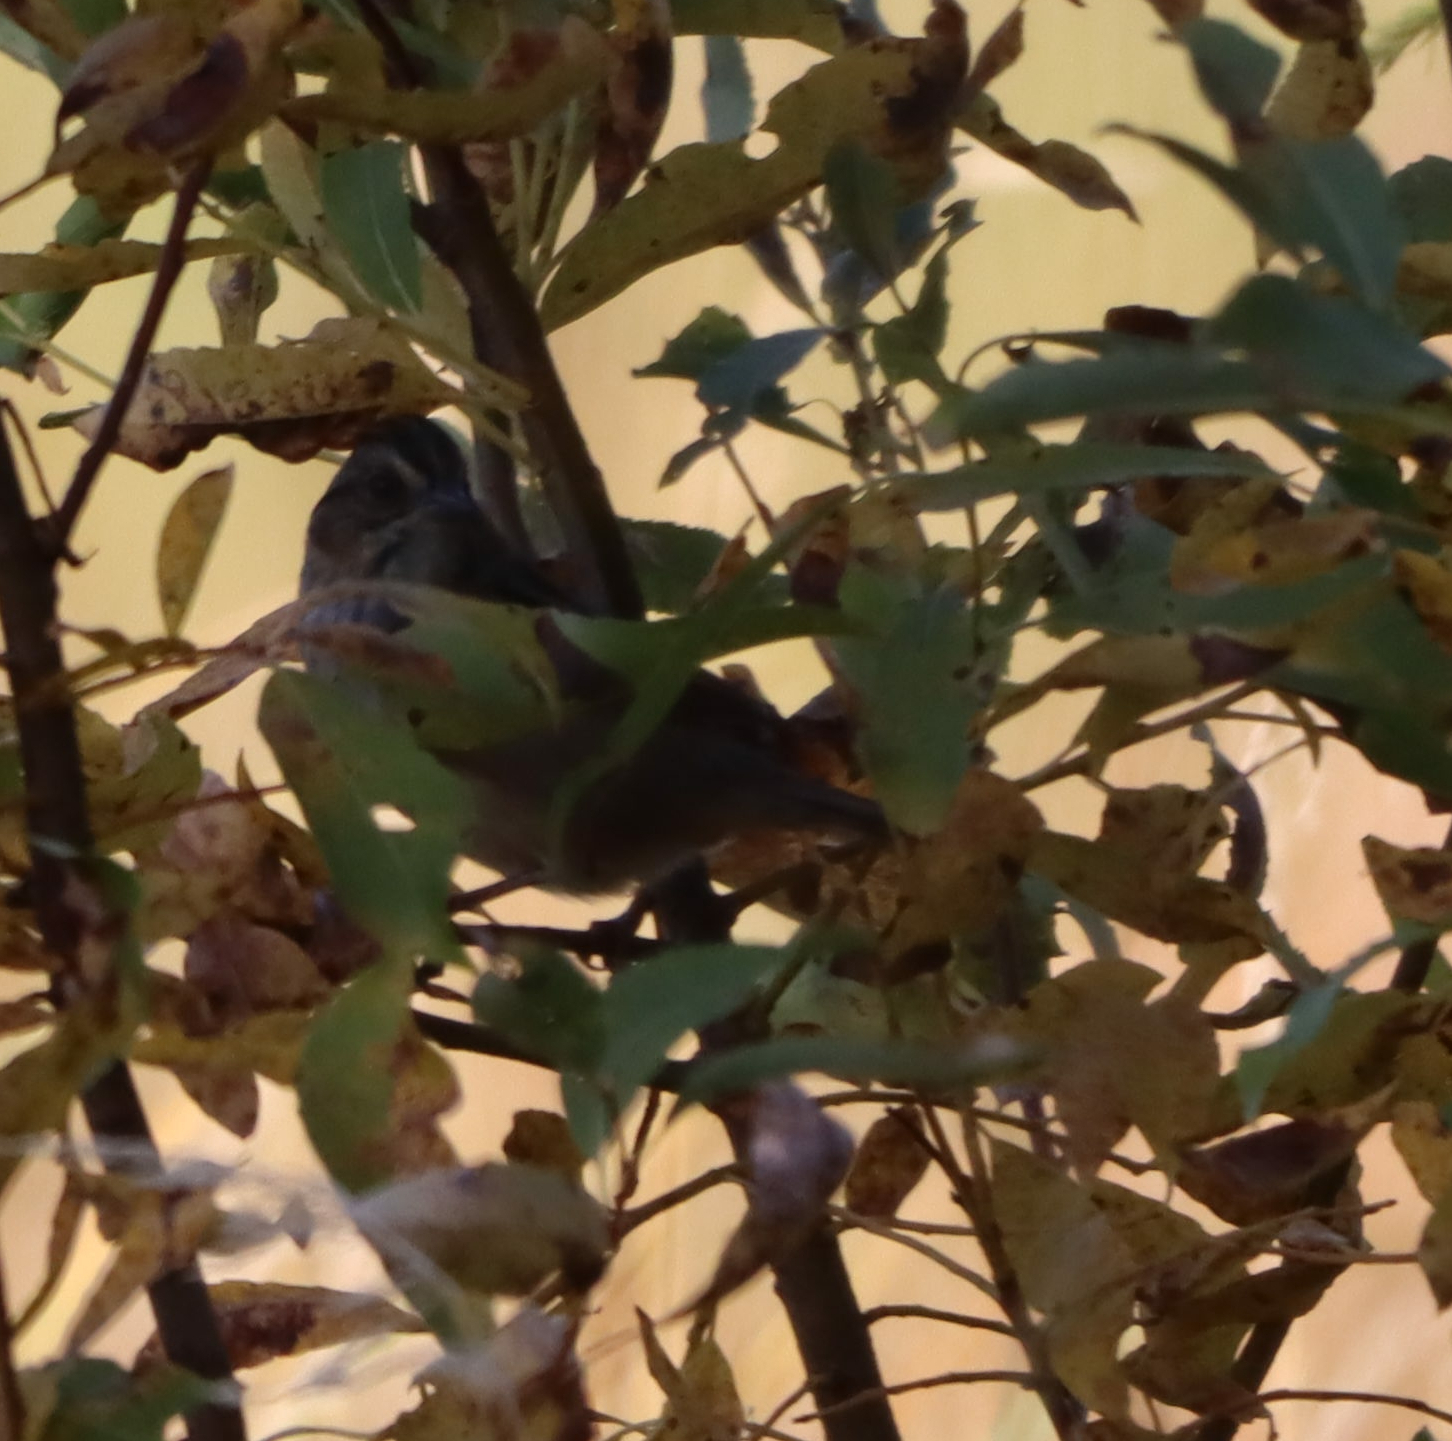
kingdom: Animalia
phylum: Chordata
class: Aves
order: Passeriformes
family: Passerellidae
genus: Melospiza
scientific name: Melospiza georgiana
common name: Swamp sparrow
